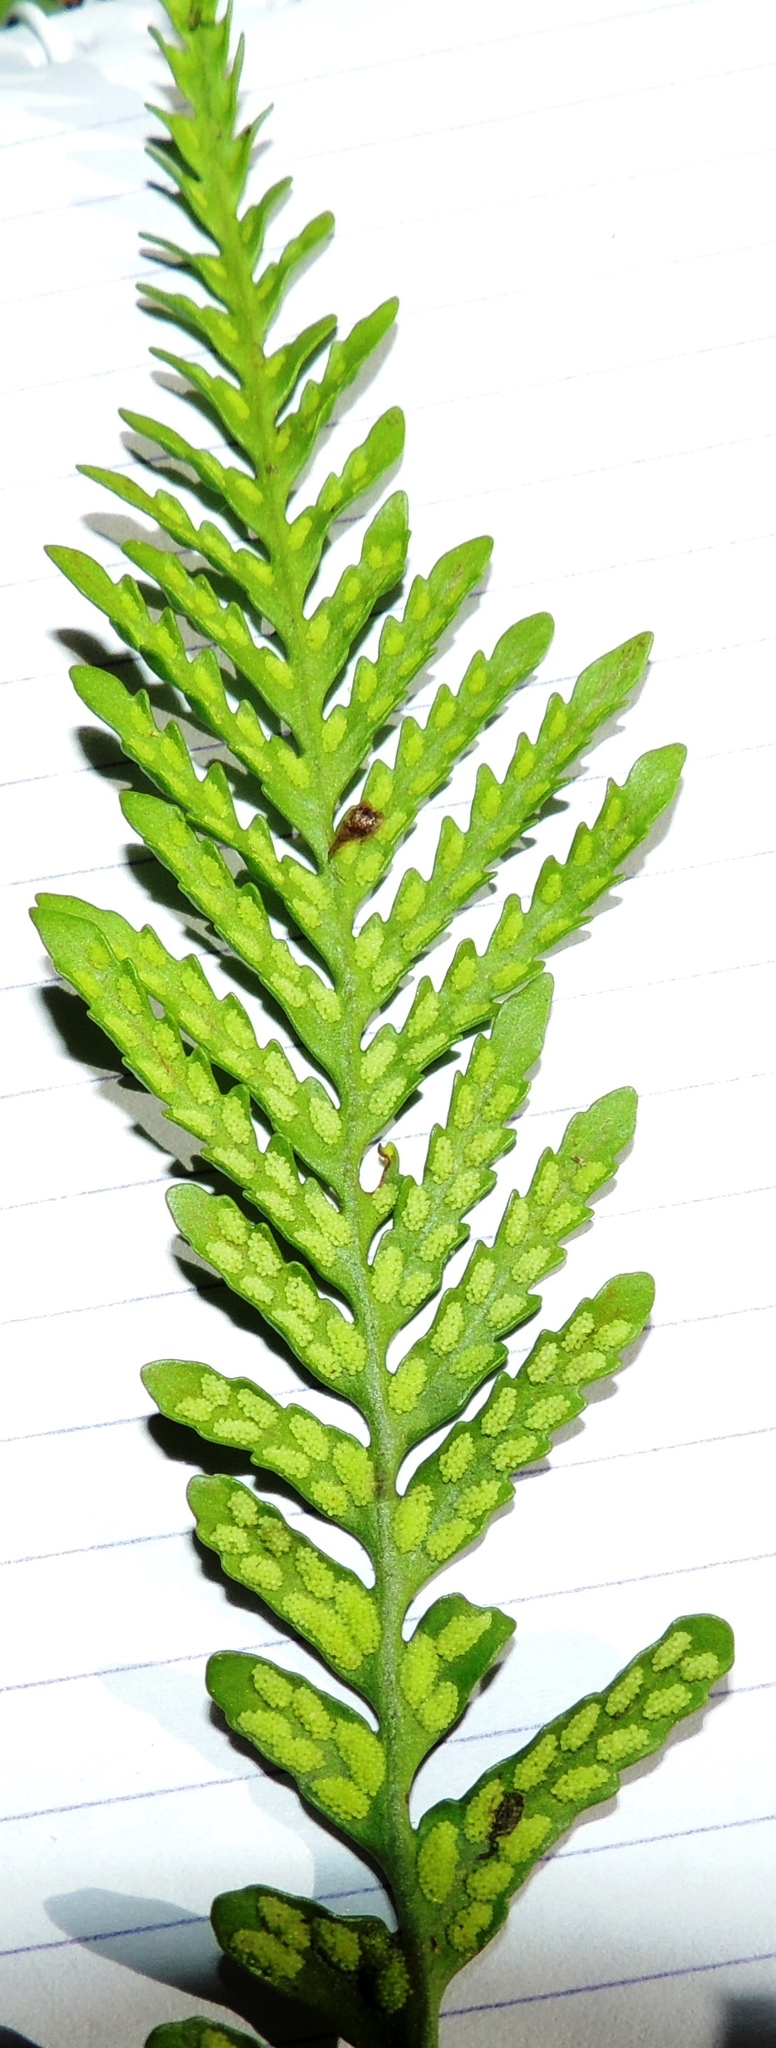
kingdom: Plantae
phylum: Tracheophyta
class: Polypodiopsida
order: Polypodiales
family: Polypodiaceae
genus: Notogrammitis
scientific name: Notogrammitis heterophylla
